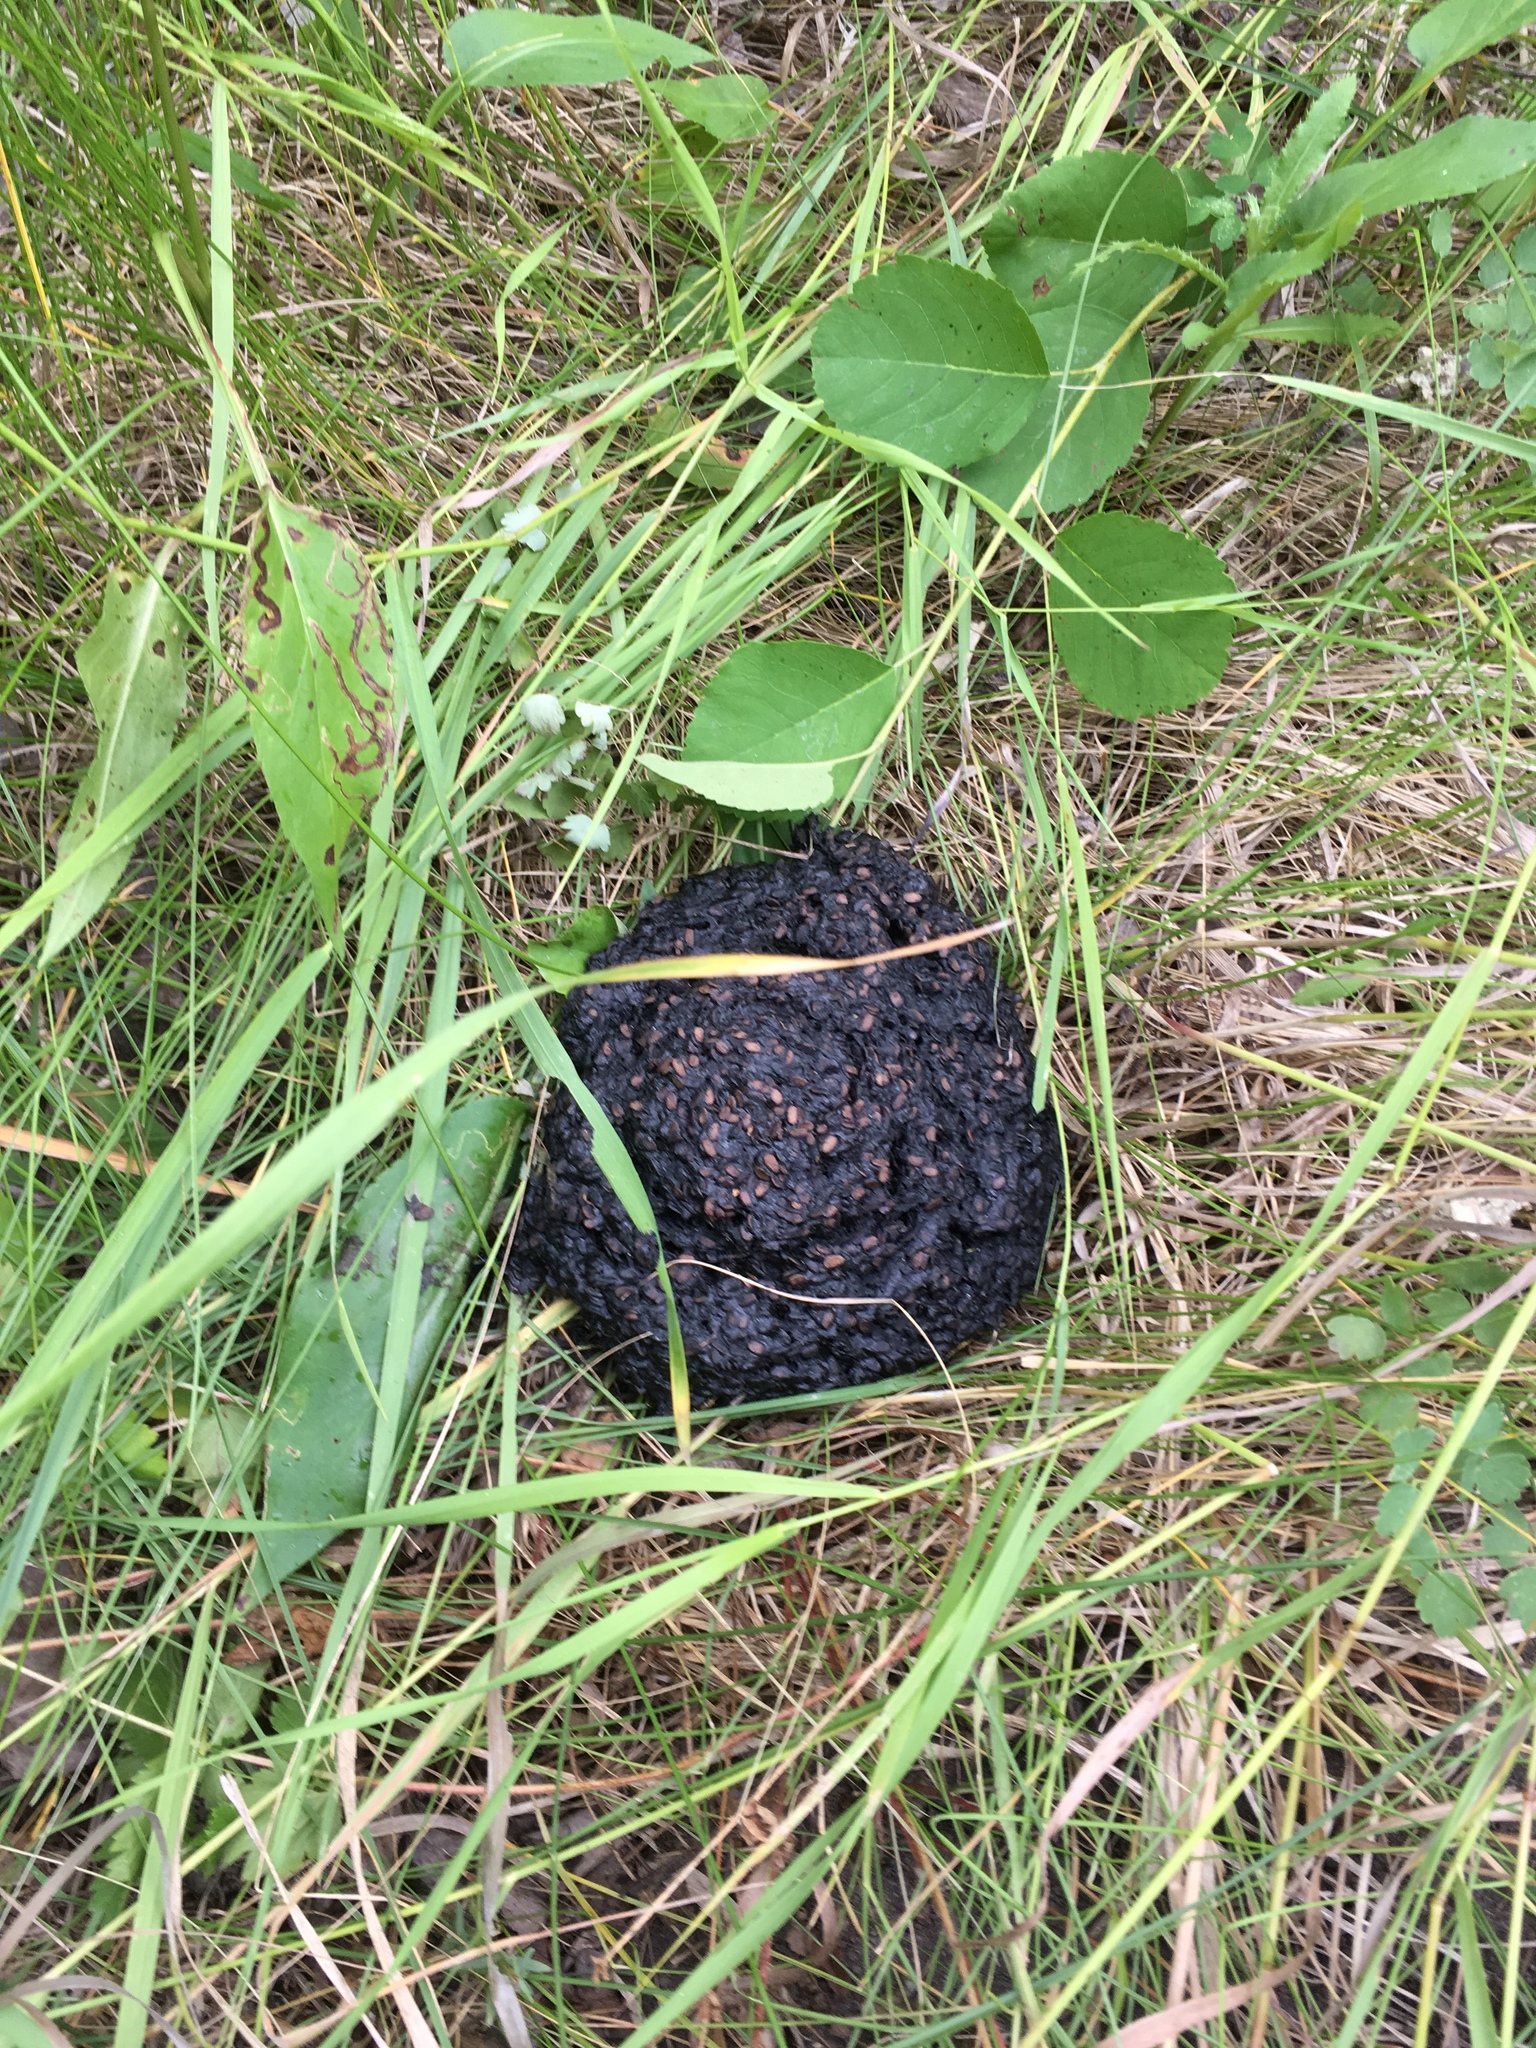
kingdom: Animalia
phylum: Chordata
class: Mammalia
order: Carnivora
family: Ursidae
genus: Ursus
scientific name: Ursus americanus
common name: American black bear
